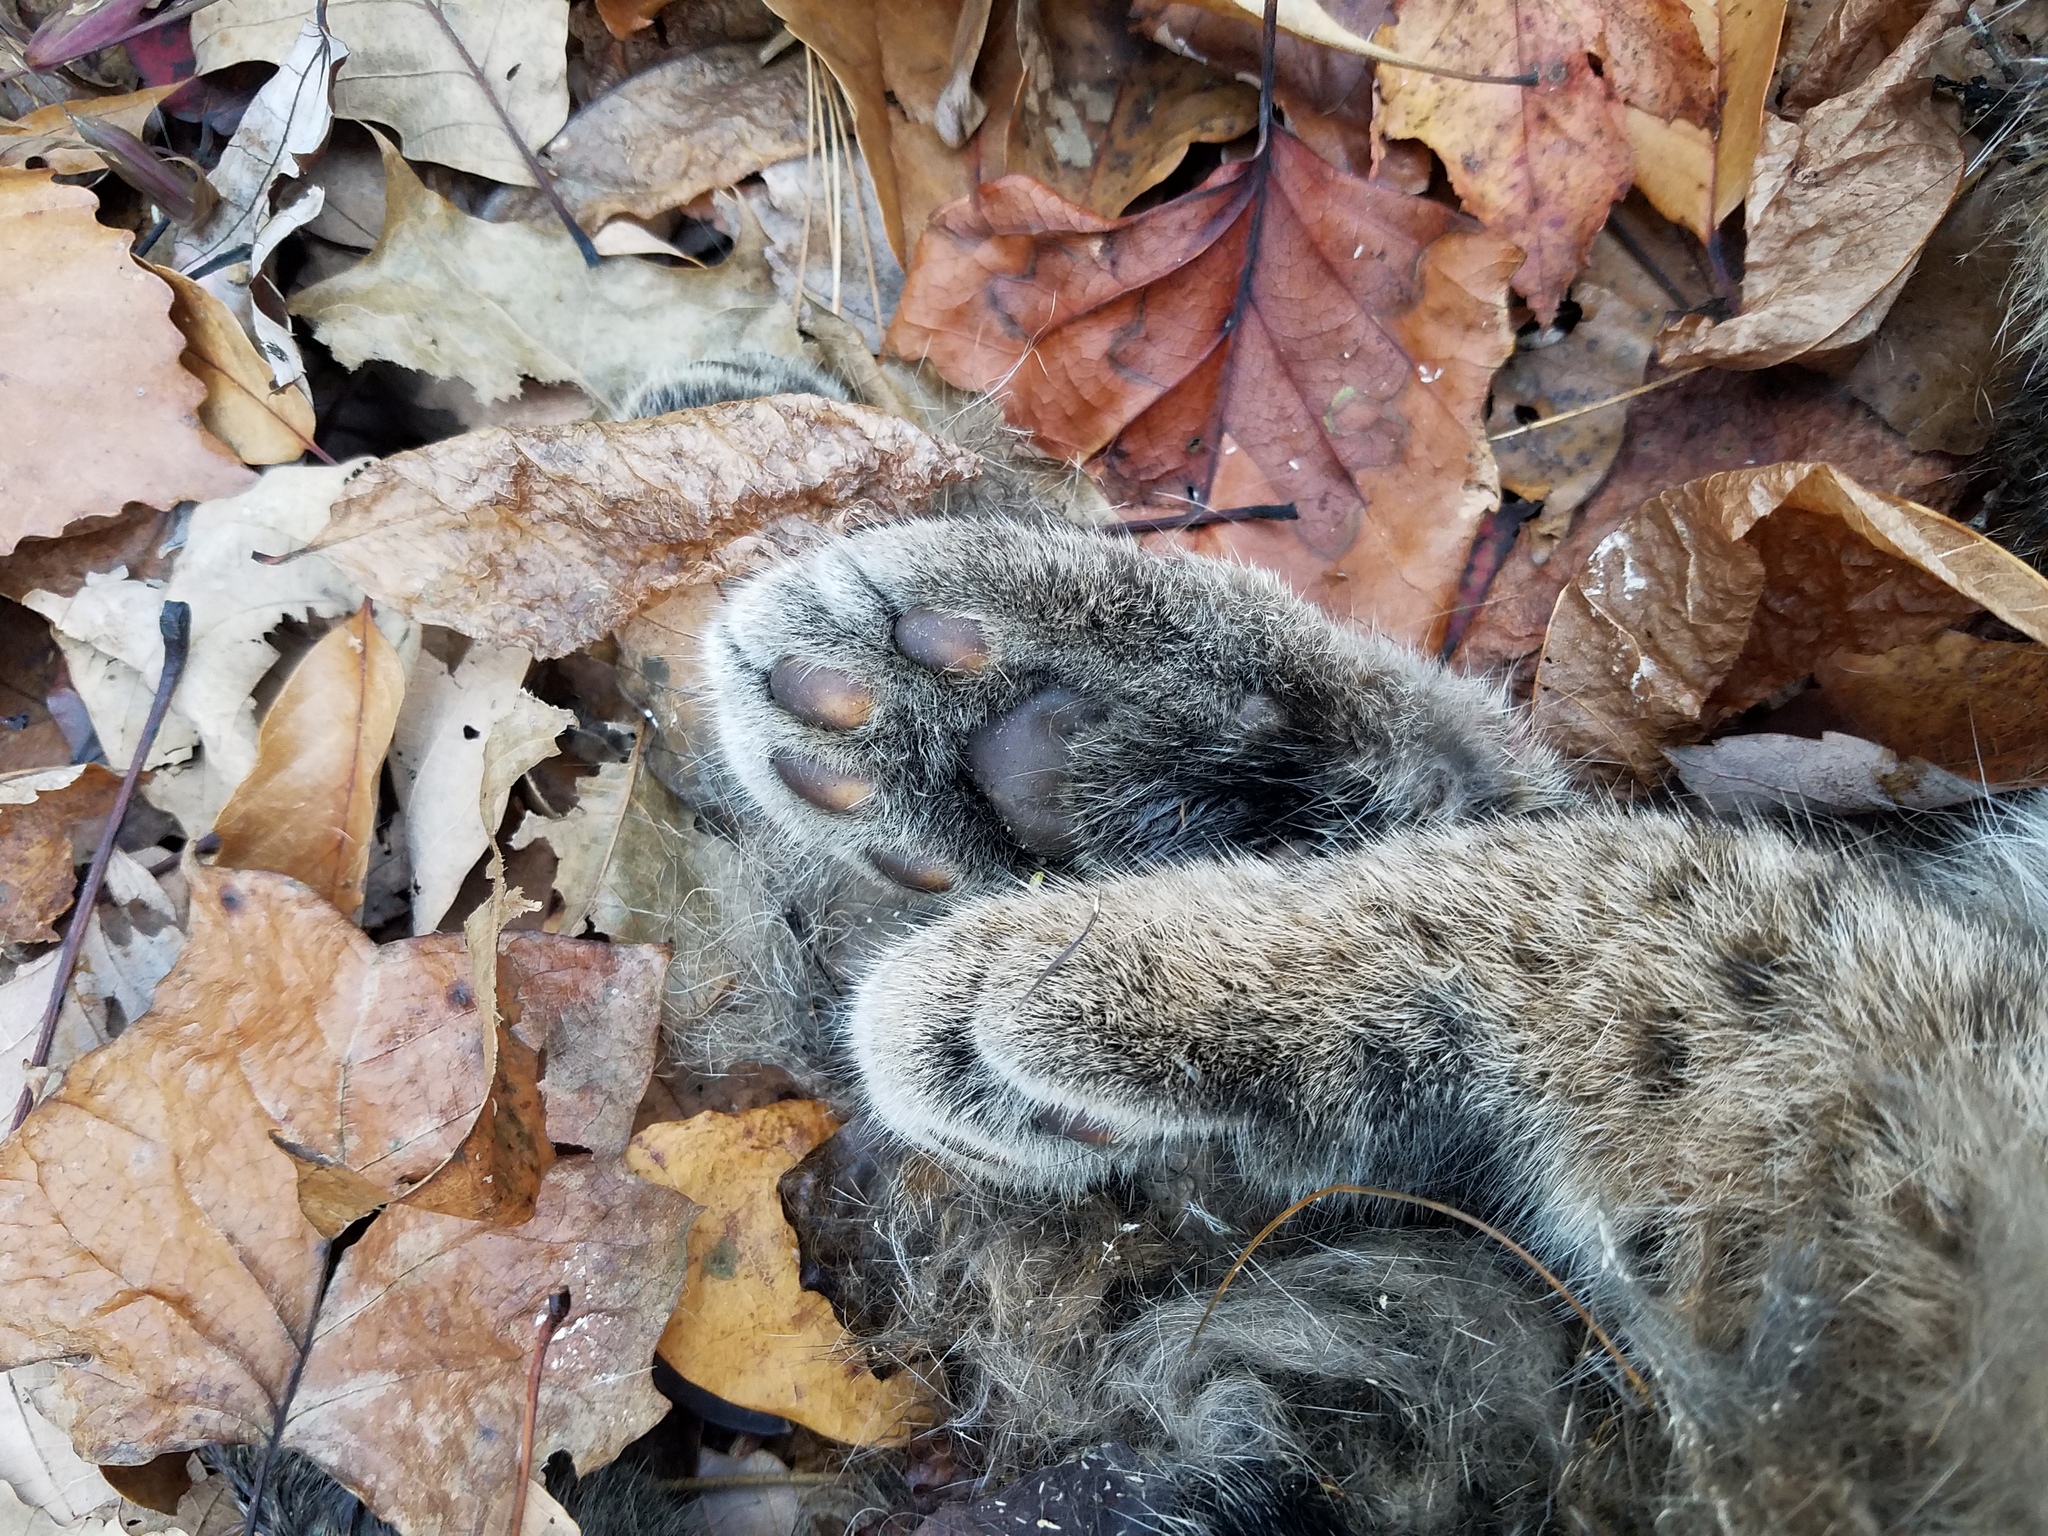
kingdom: Animalia
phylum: Chordata
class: Mammalia
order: Carnivora
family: Felidae
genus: Lynx
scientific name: Lynx rufus
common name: Bobcat
